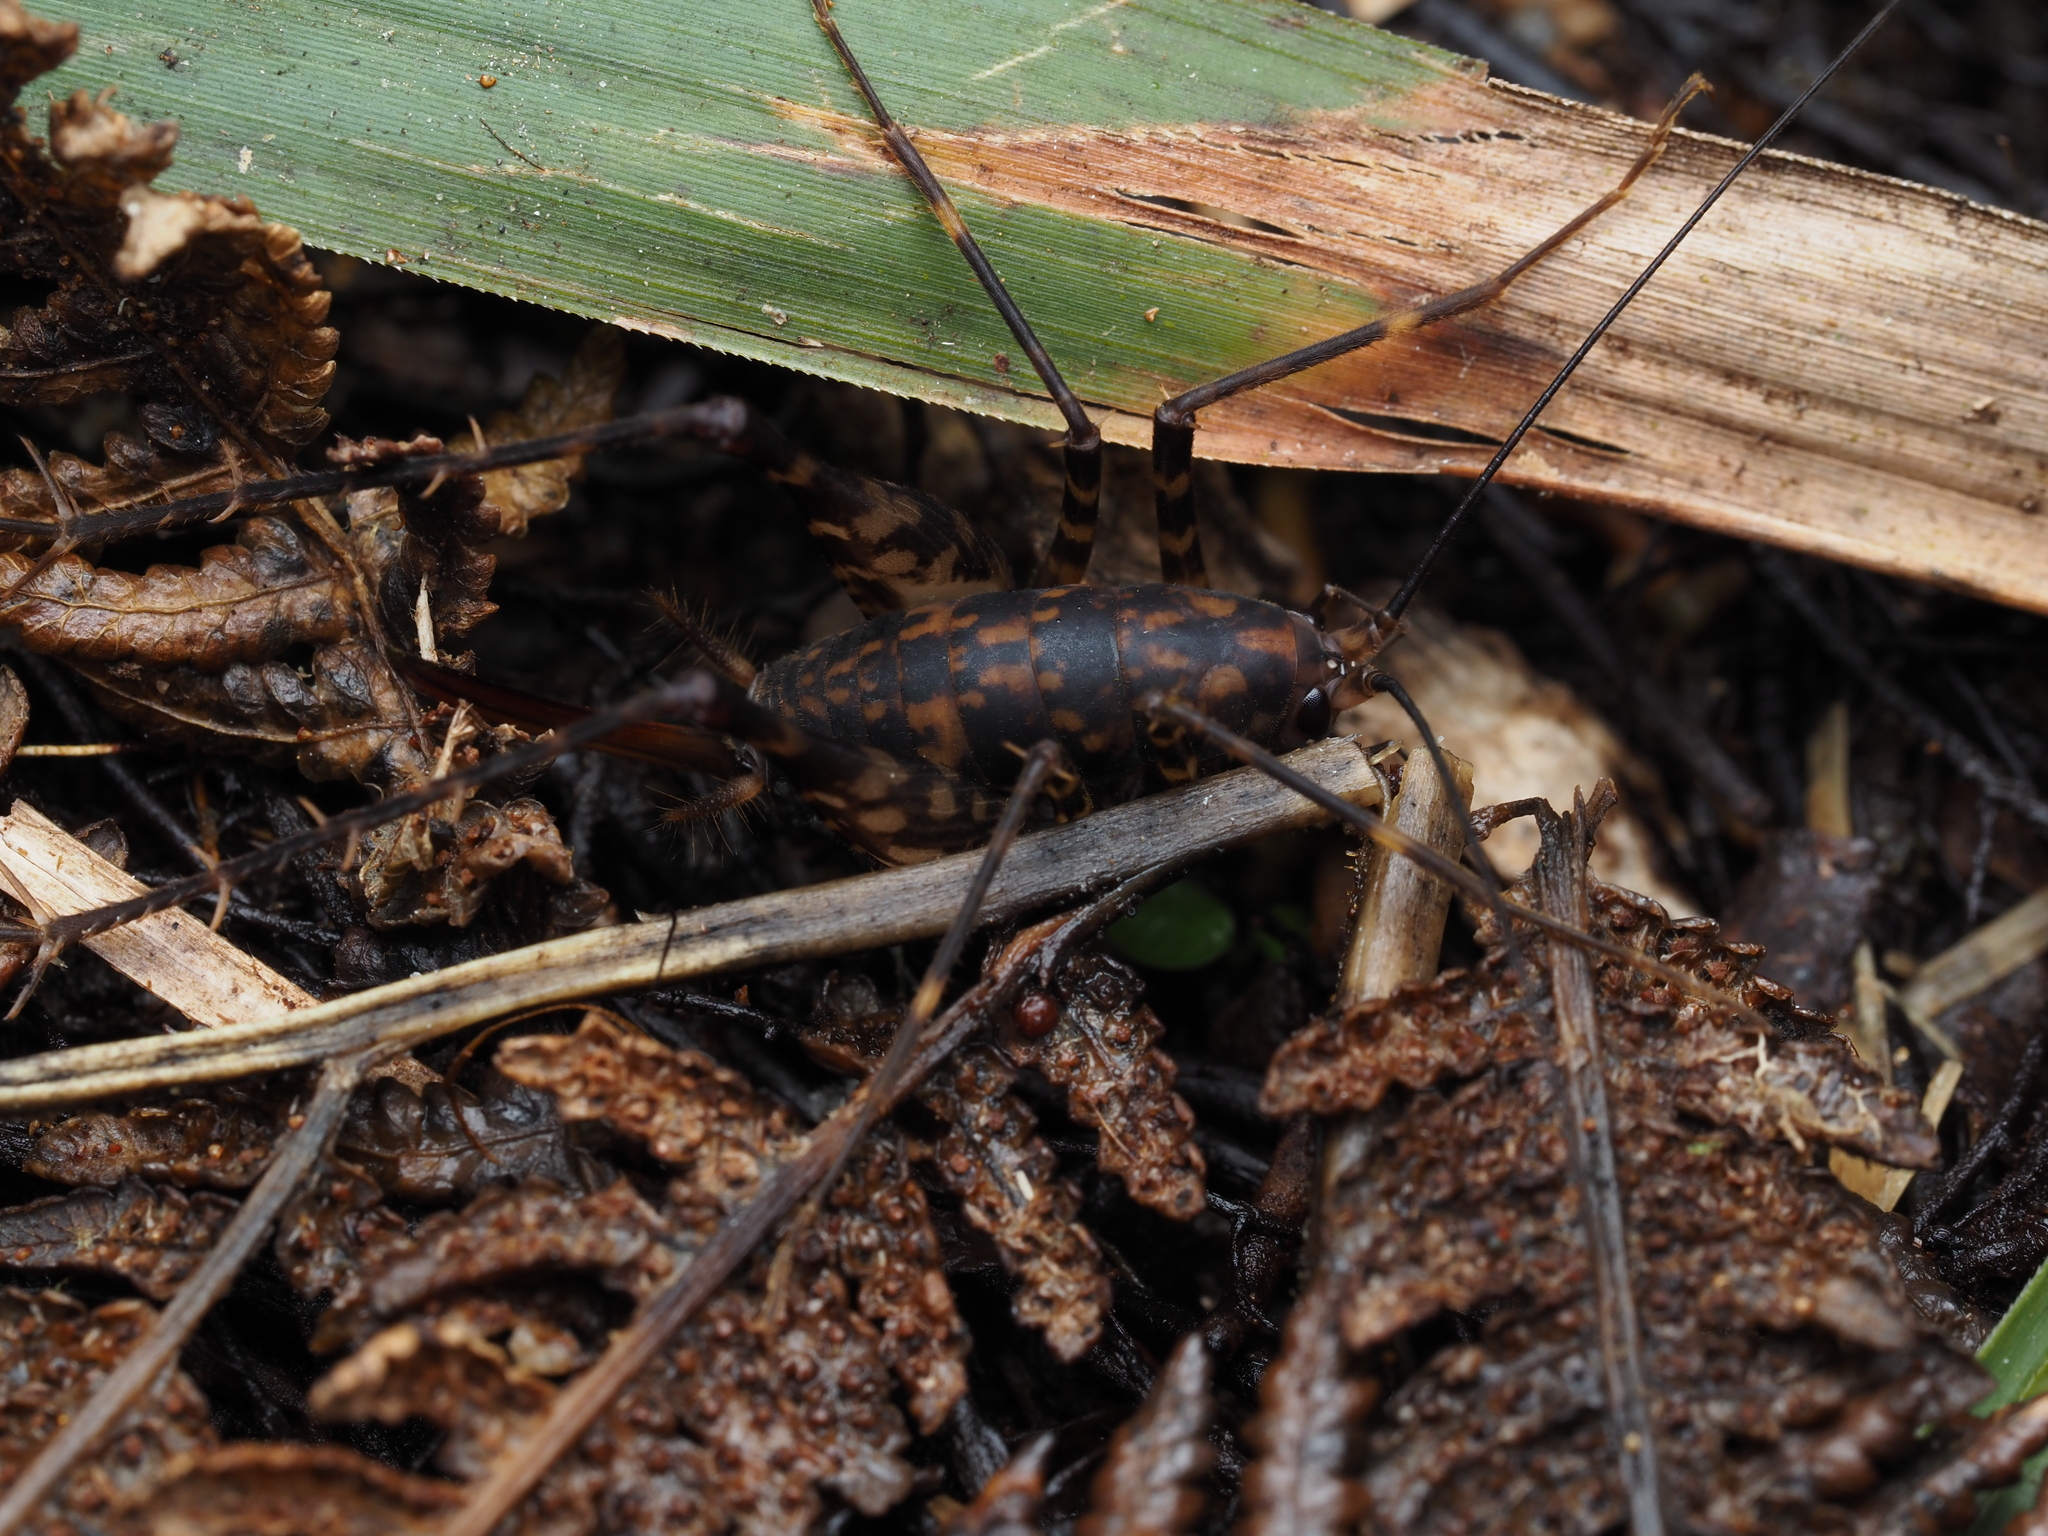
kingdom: Animalia
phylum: Arthropoda
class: Insecta
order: Orthoptera
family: Rhaphidophoridae
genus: Miotopus
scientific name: Miotopus richardsae
